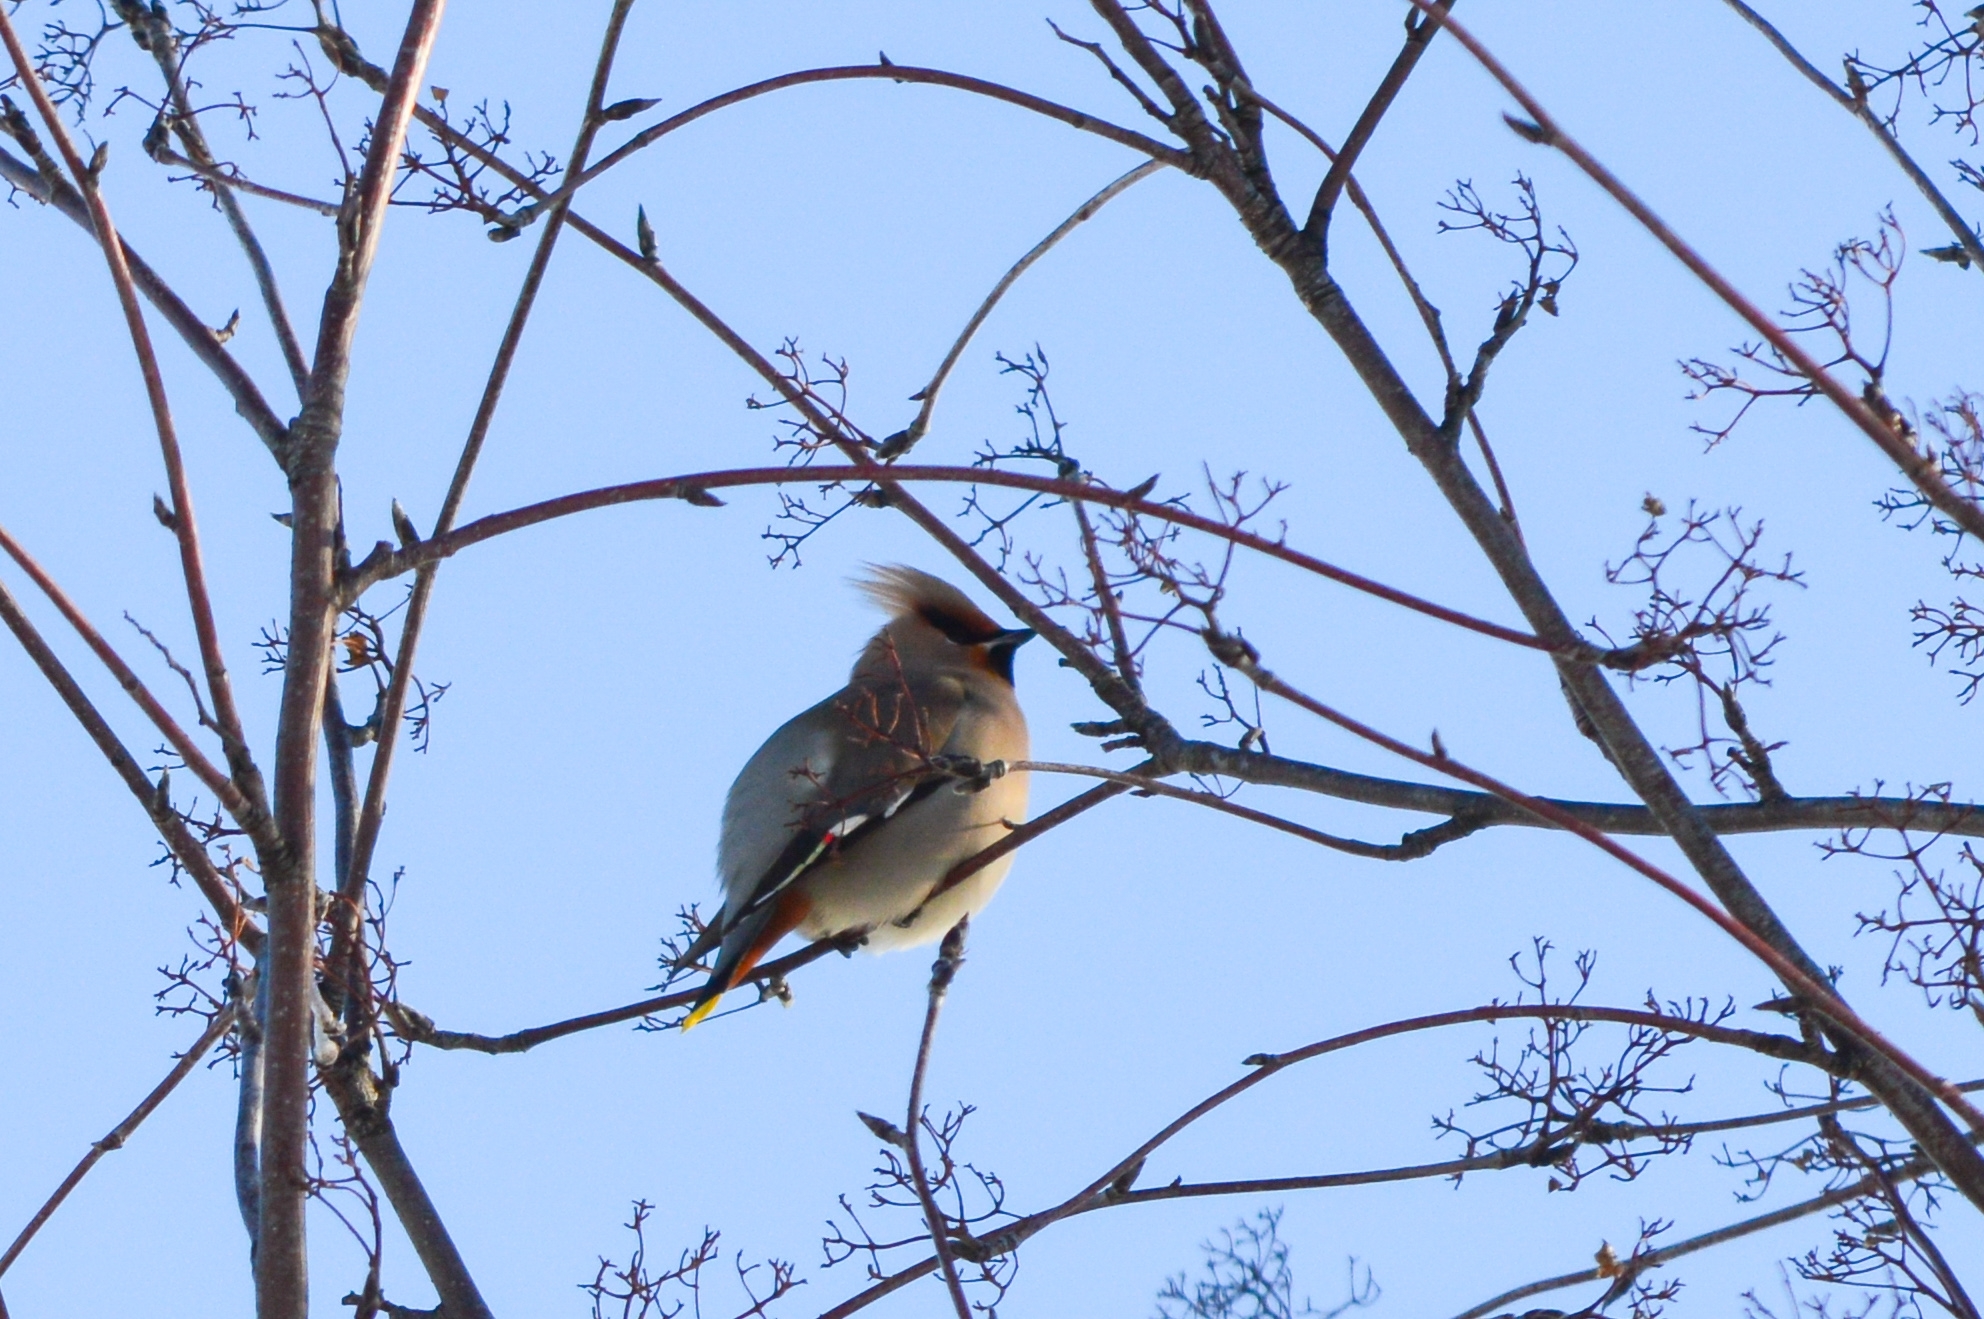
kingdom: Animalia
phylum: Chordata
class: Aves
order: Passeriformes
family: Bombycillidae
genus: Bombycilla
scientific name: Bombycilla garrulus
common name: Bohemian waxwing
